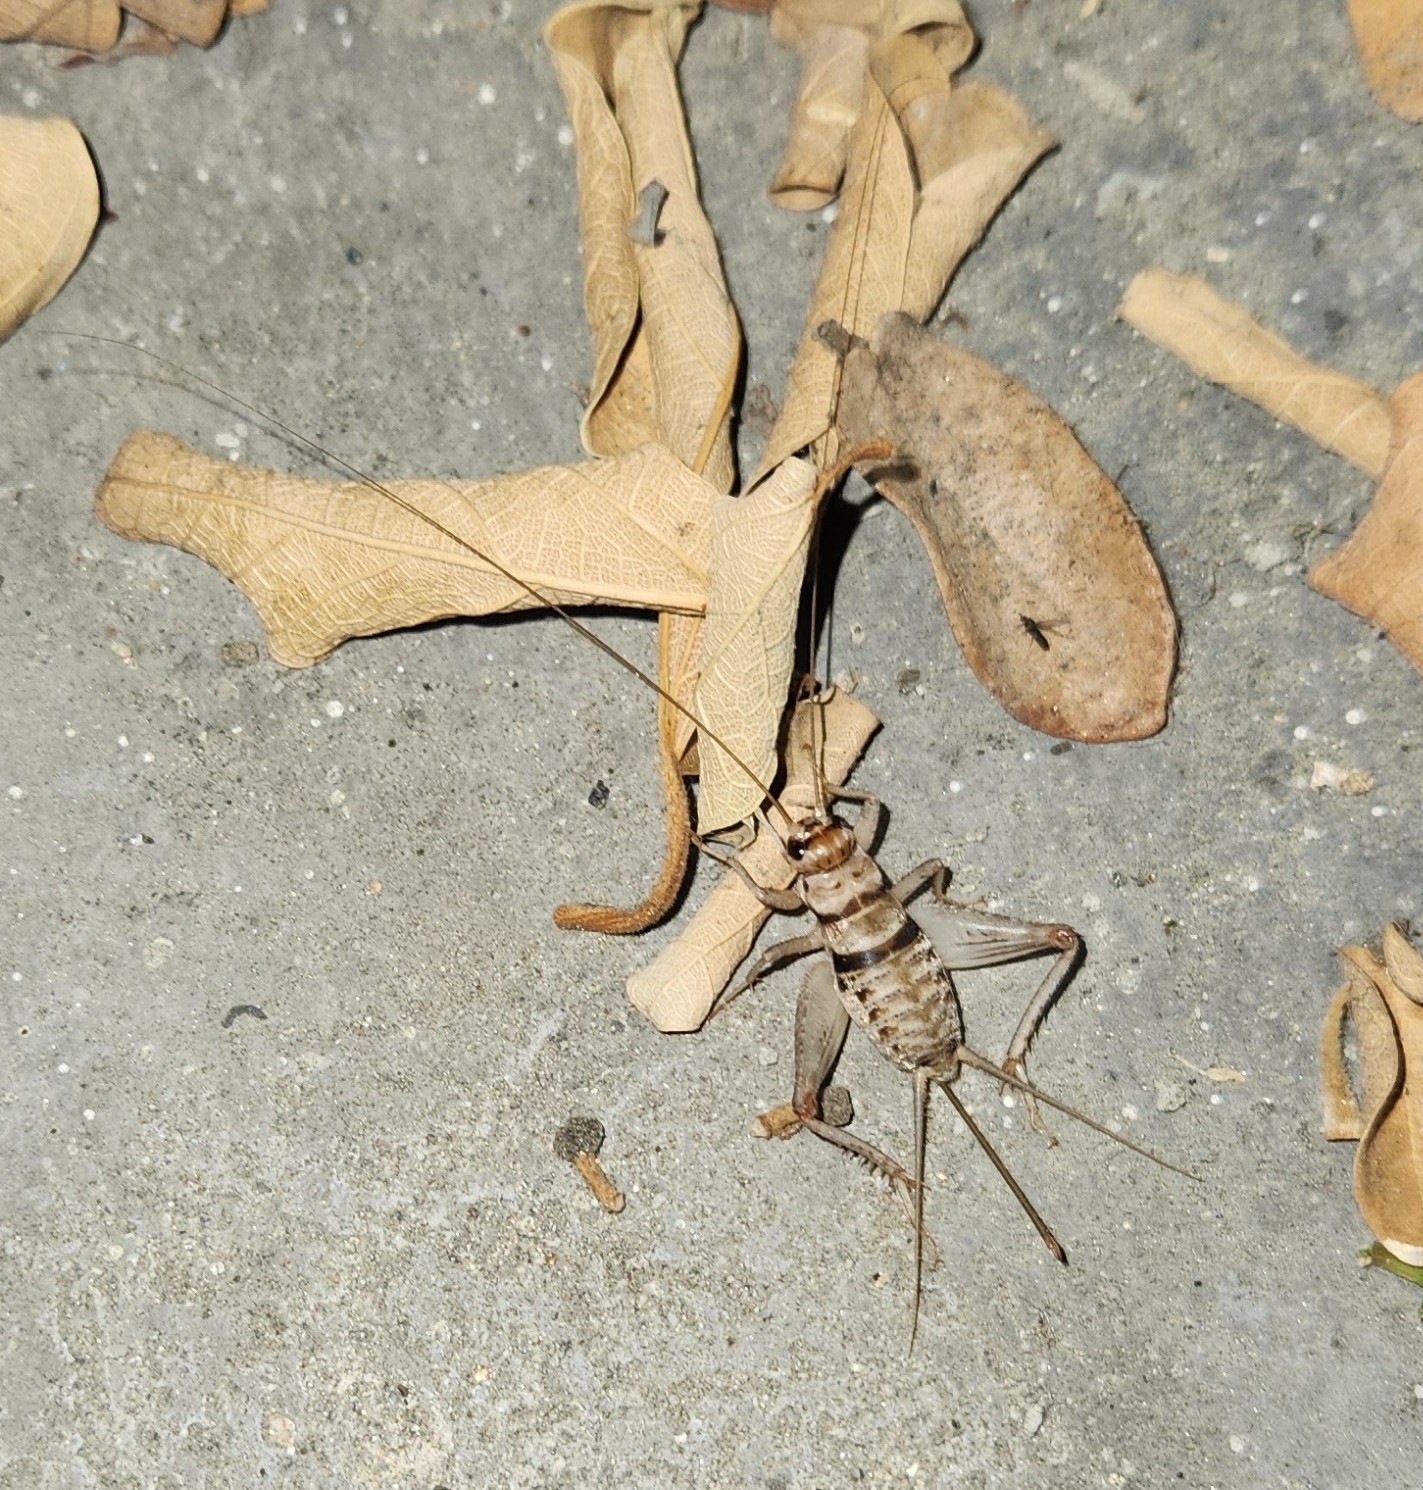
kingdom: Animalia
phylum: Arthropoda
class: Insecta
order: Orthoptera
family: Gryllidae
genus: Gryllodes
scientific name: Gryllodes sigillatus
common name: Tropical house cricket
